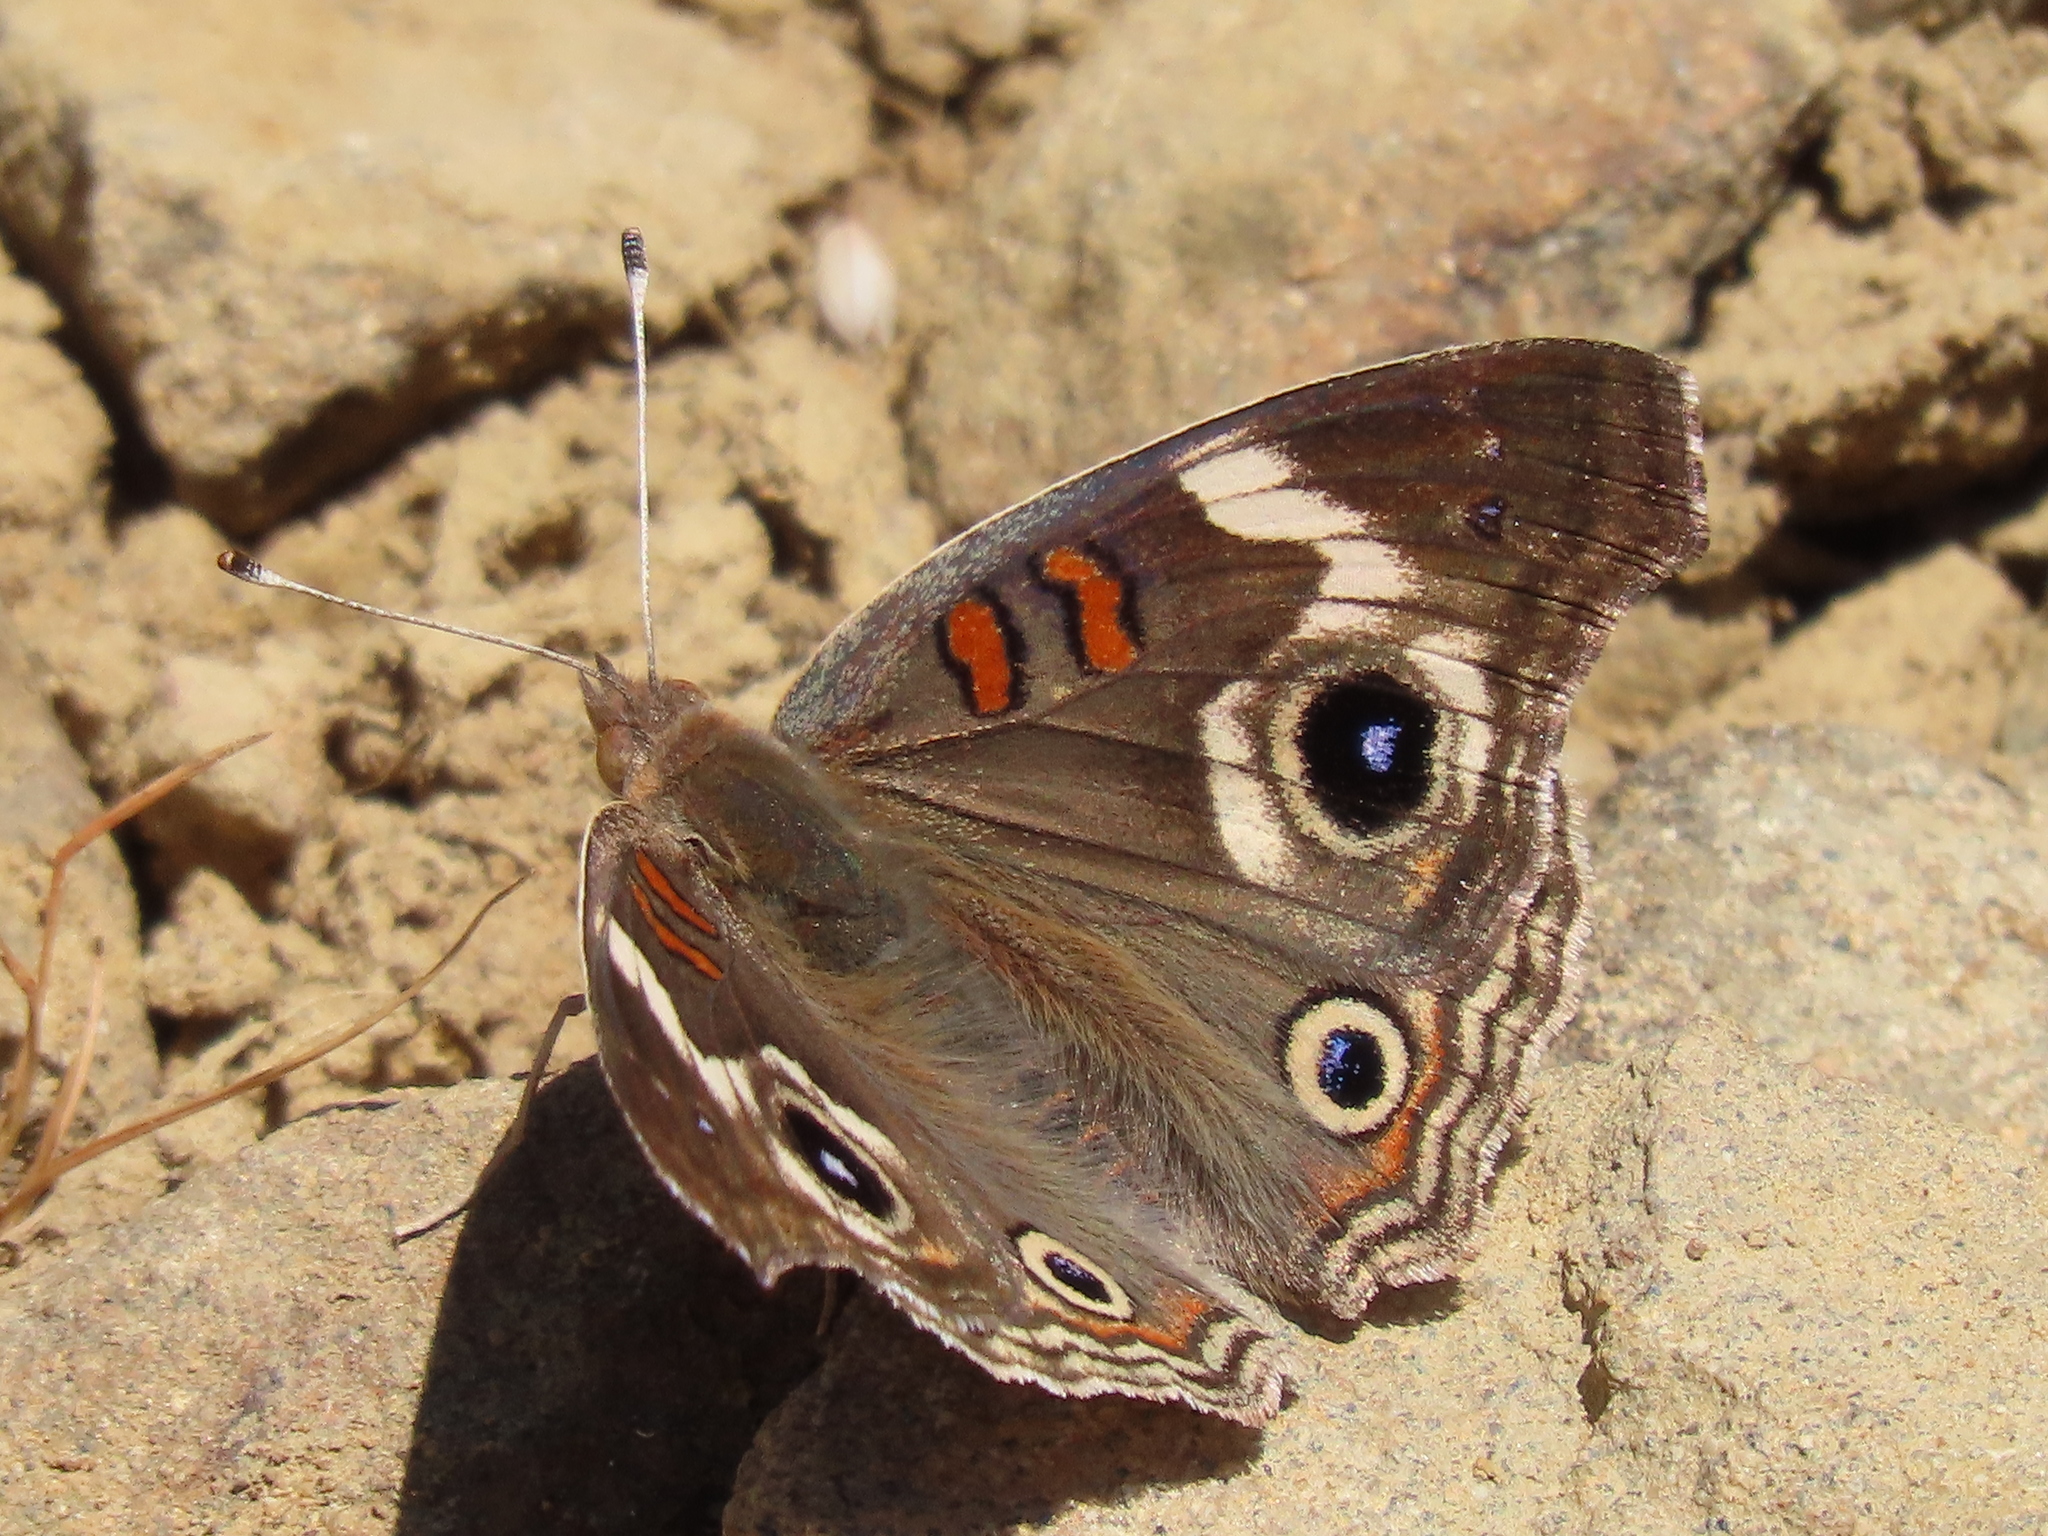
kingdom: Animalia
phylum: Arthropoda
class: Insecta
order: Lepidoptera
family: Nymphalidae
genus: Junonia
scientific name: Junonia grisea
